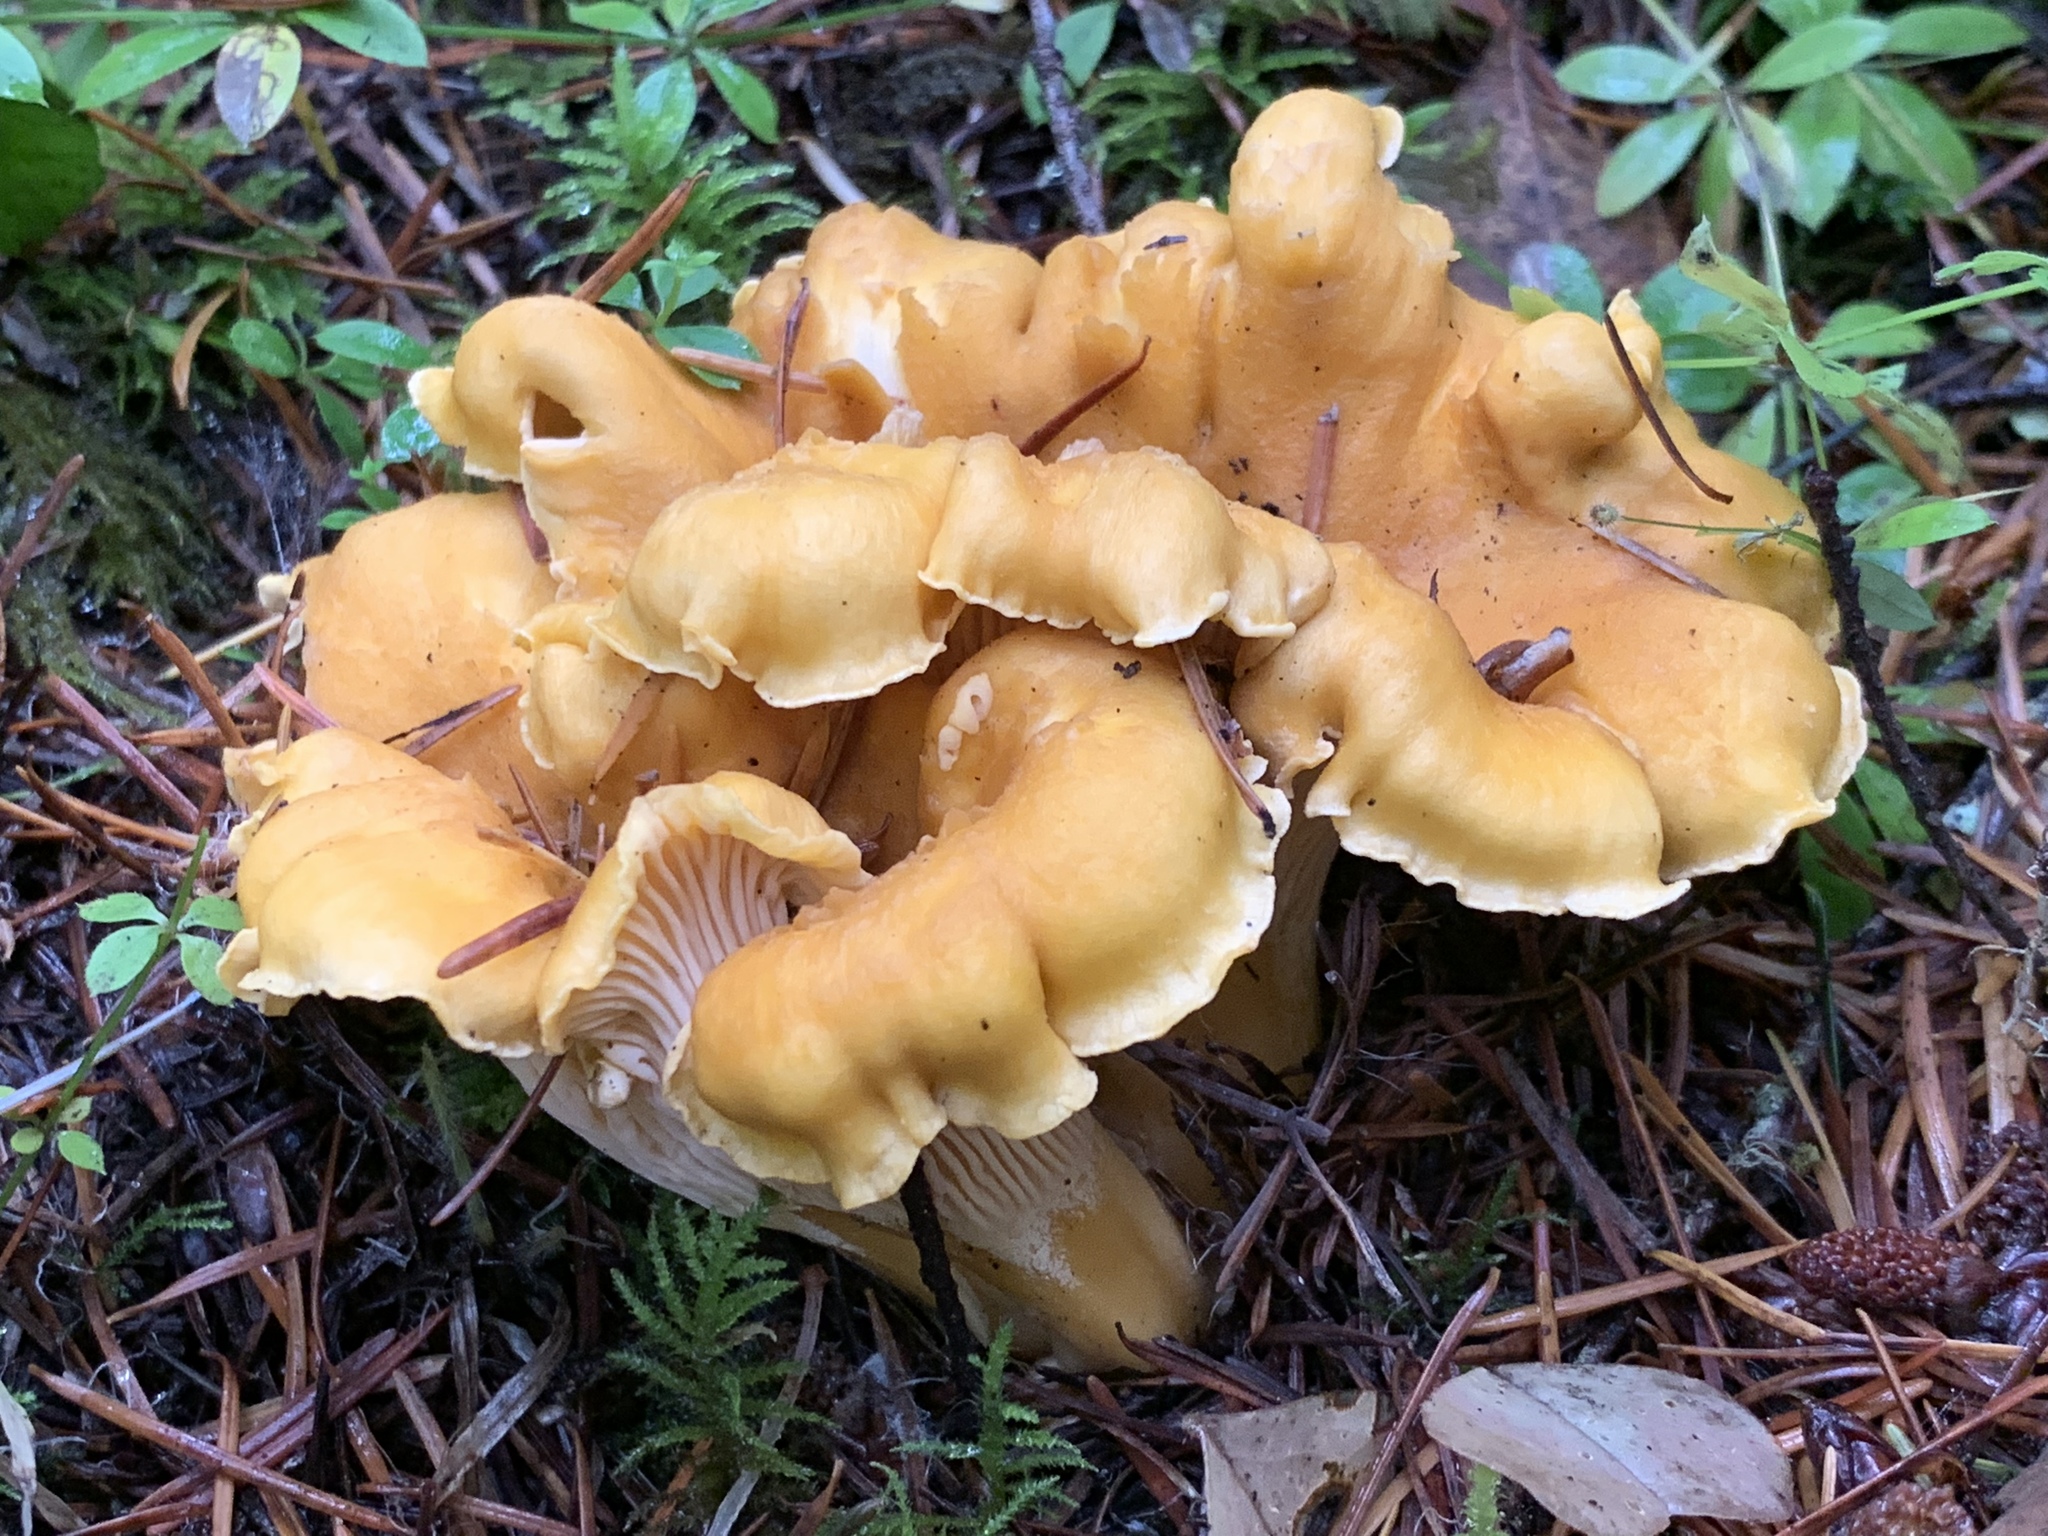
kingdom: Fungi
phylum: Basidiomycota
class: Agaricomycetes
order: Cantharellales
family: Hydnaceae
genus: Cantharellus
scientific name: Cantharellus formosus
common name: Pacific golden chanterelle
